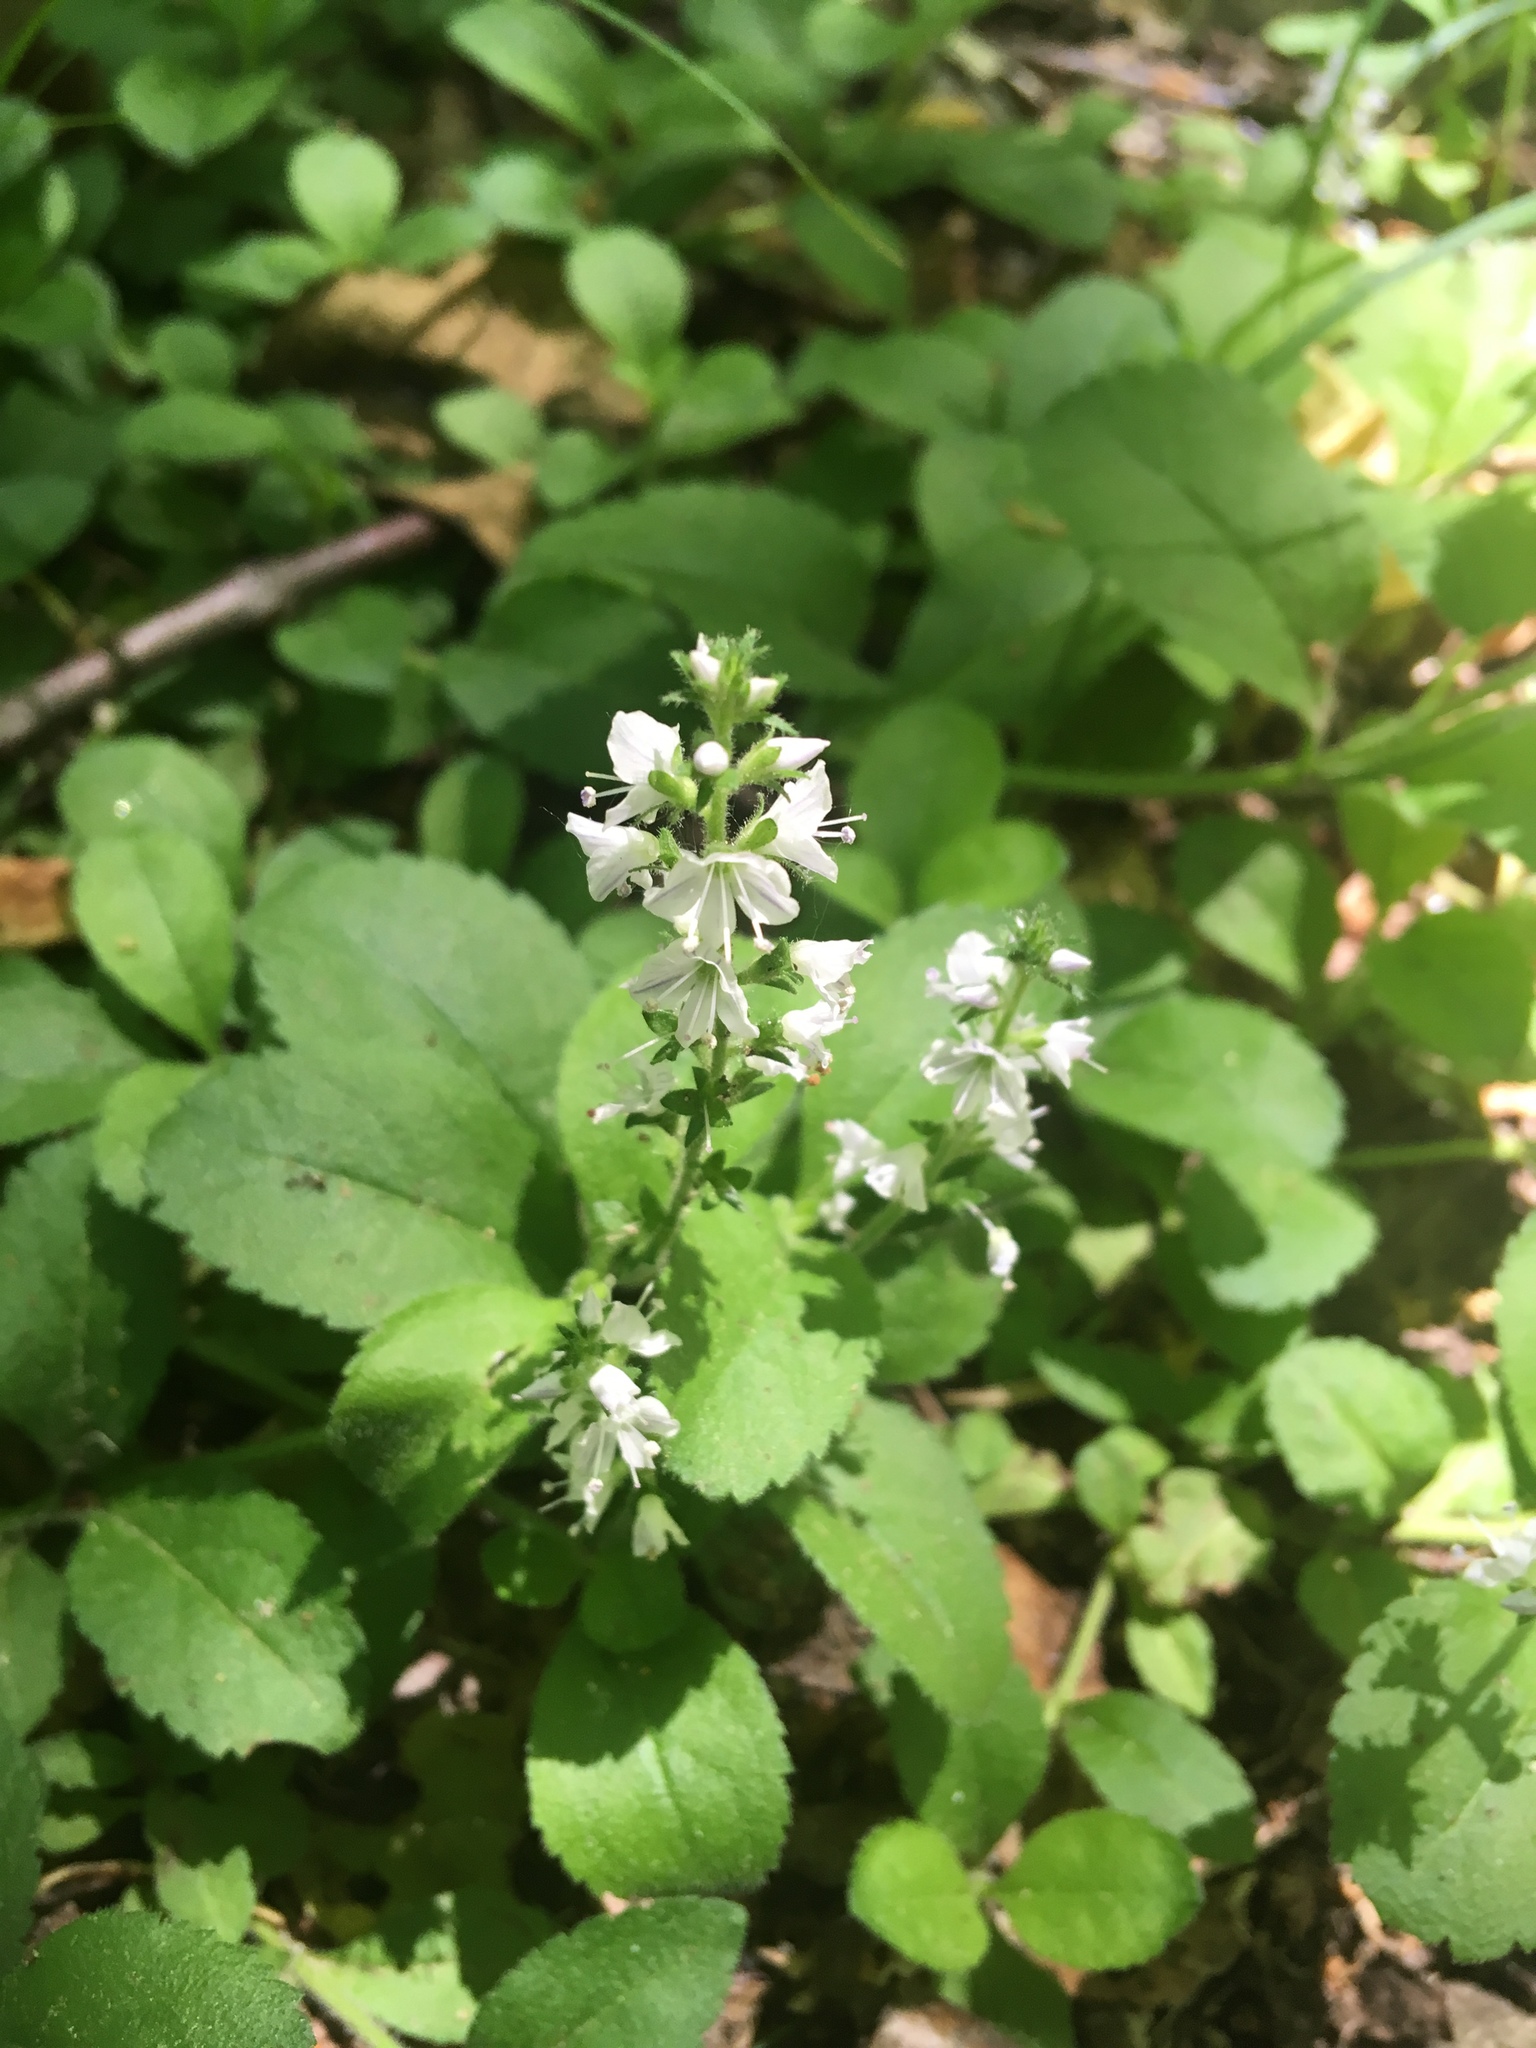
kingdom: Plantae
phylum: Tracheophyta
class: Magnoliopsida
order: Lamiales
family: Plantaginaceae
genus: Veronica
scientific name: Veronica officinalis
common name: Common speedwell
